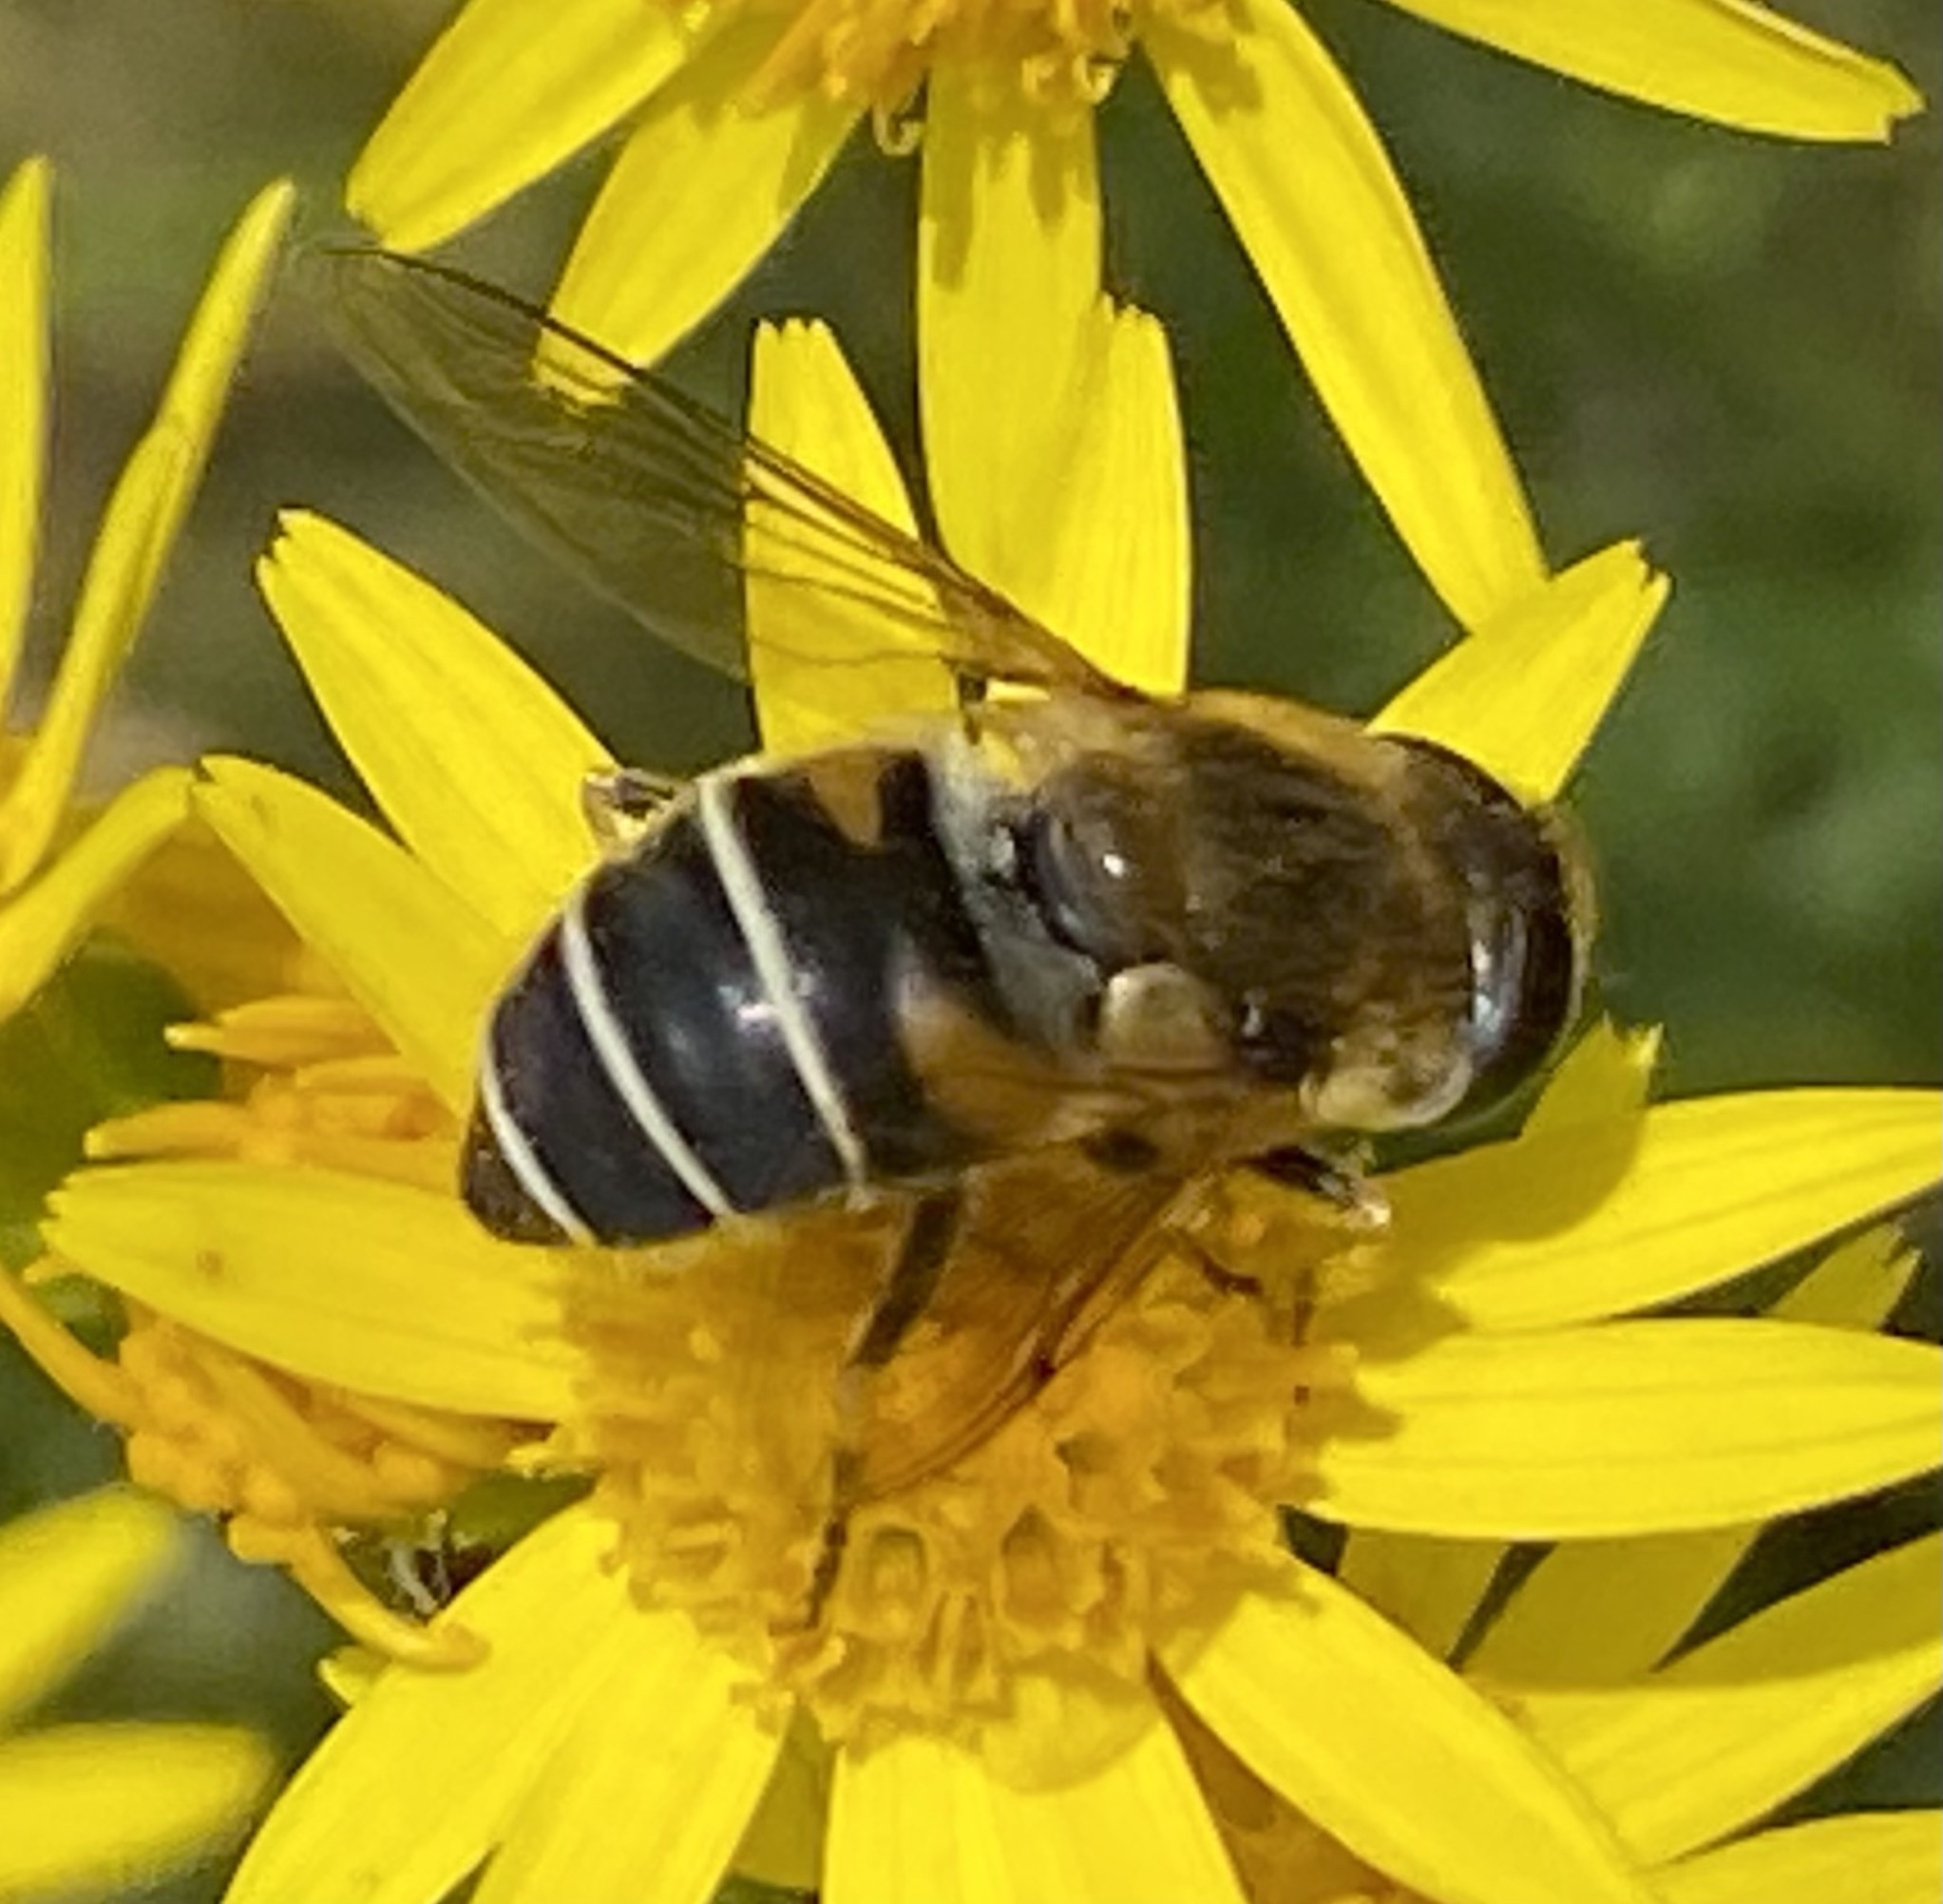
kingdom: Animalia
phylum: Arthropoda
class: Insecta
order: Diptera
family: Syrphidae
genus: Eristalis
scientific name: Eristalis nemorum
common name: Orange-spined drone fly
